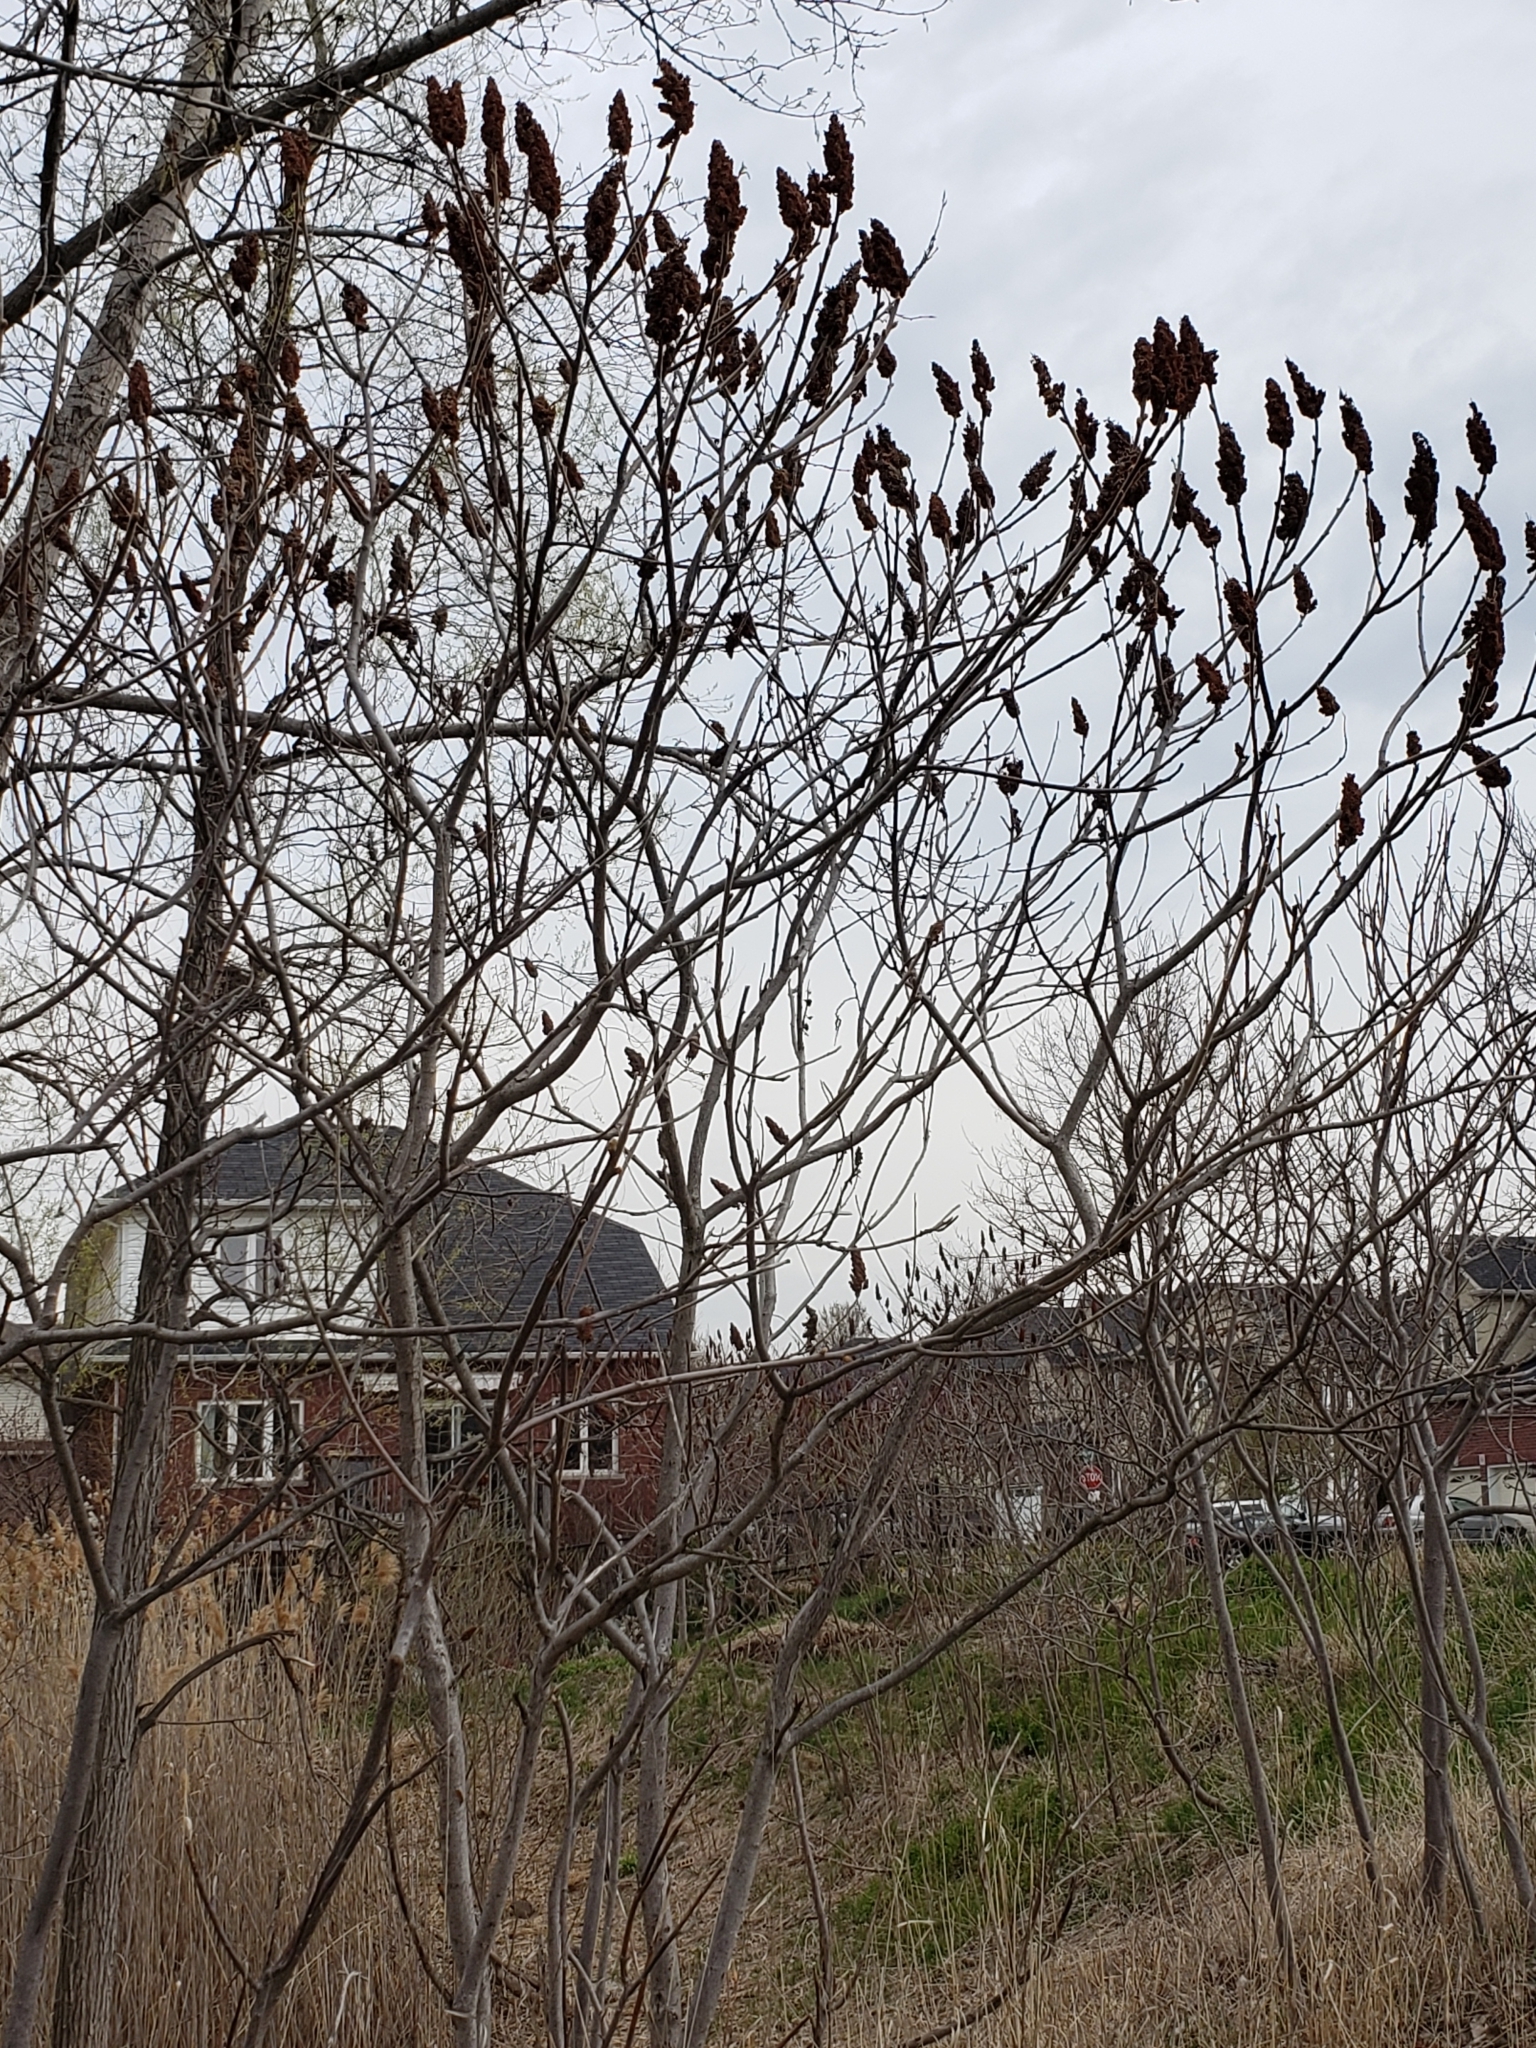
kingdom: Plantae
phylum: Tracheophyta
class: Magnoliopsida
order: Sapindales
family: Anacardiaceae
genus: Rhus
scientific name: Rhus typhina
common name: Staghorn sumac
